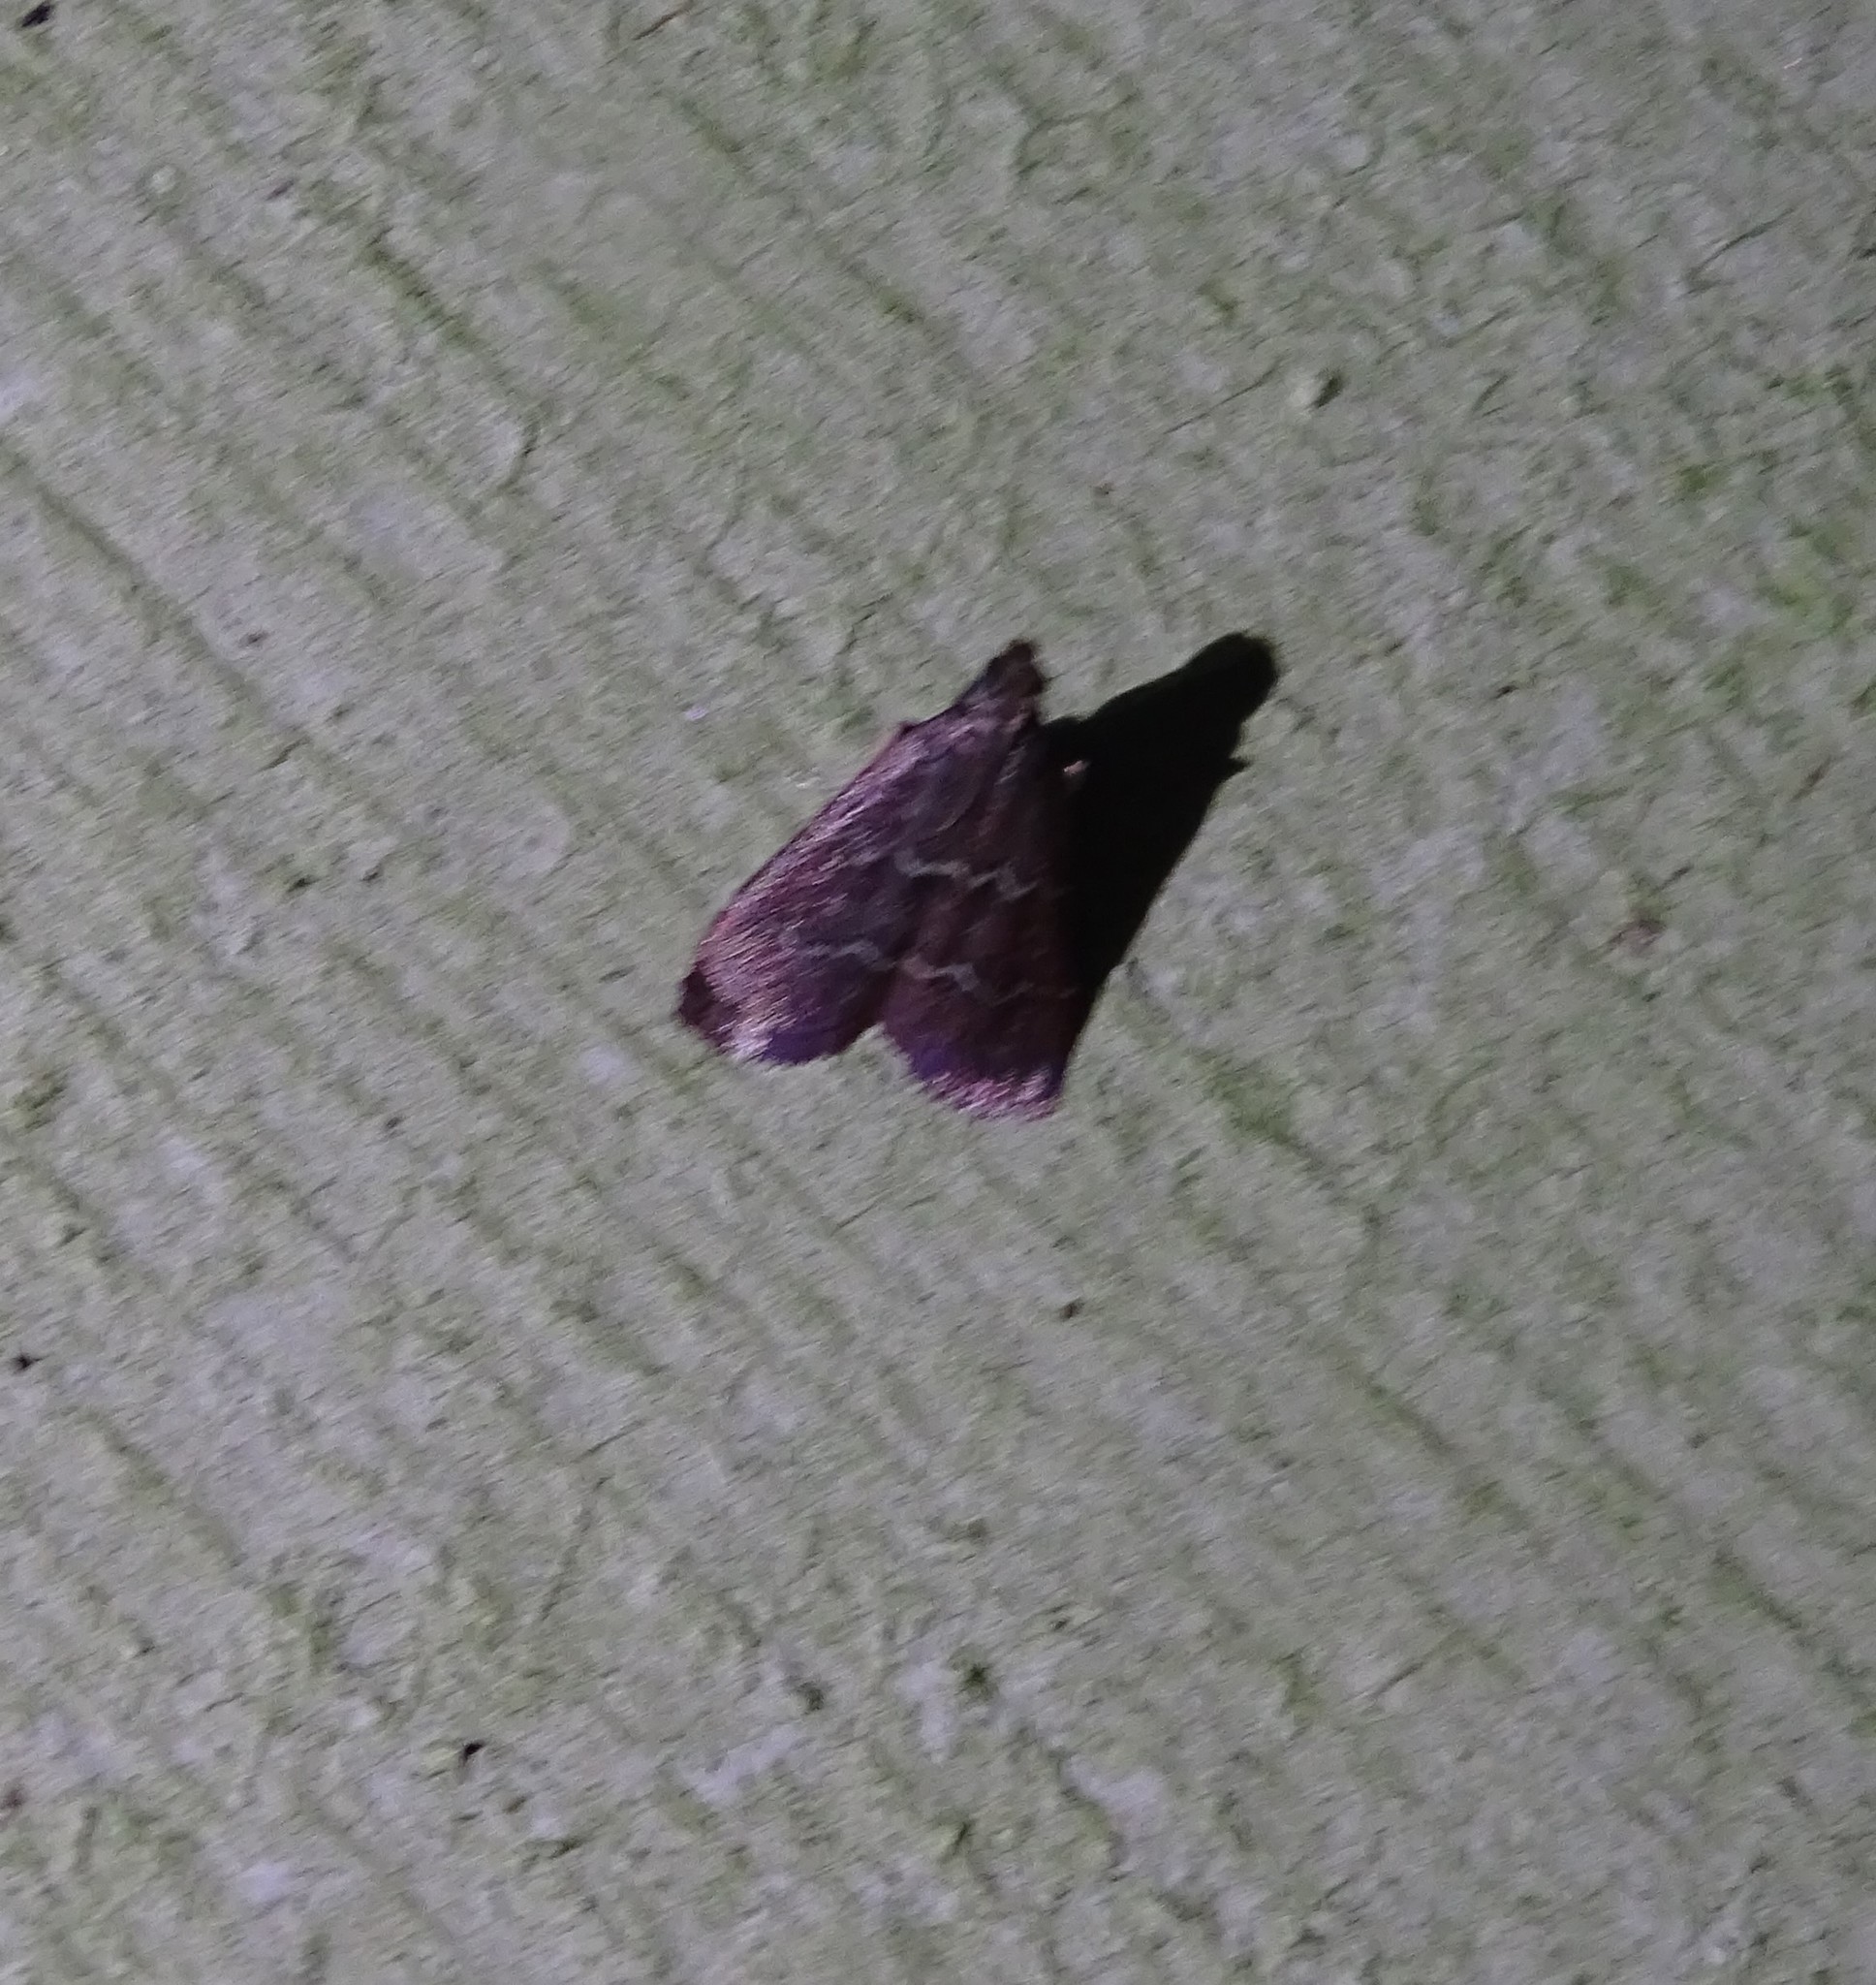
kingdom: Animalia
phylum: Arthropoda
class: Insecta
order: Lepidoptera
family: Pyralidae
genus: Arta
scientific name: Arta
